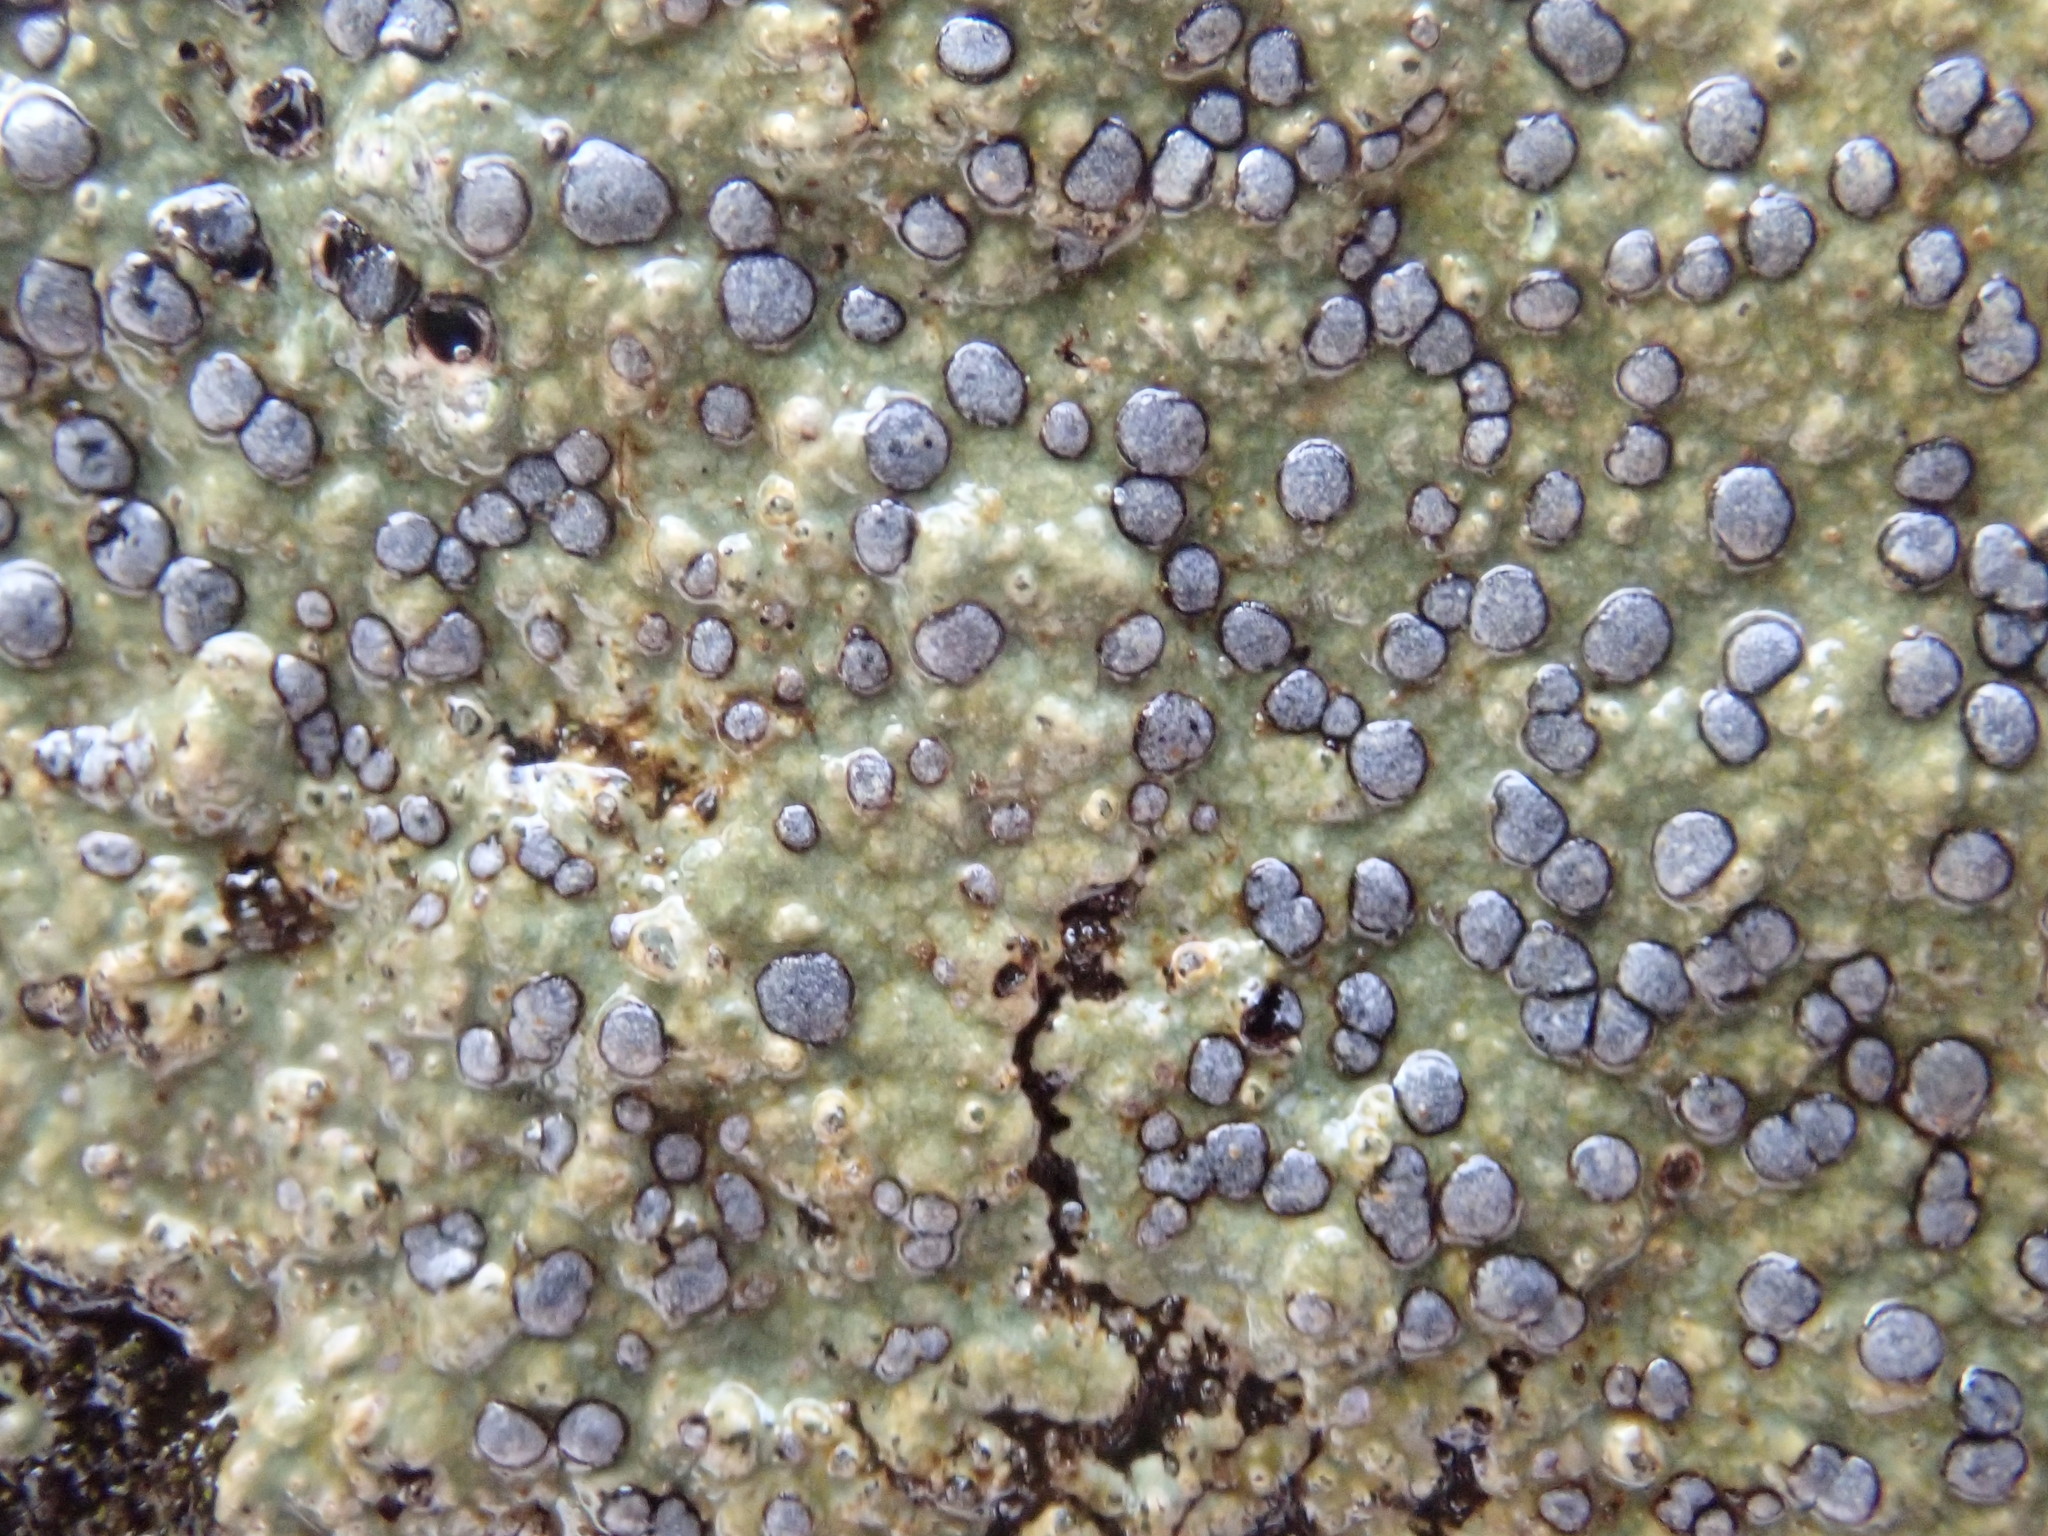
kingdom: Fungi
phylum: Ascomycota
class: Lecanoromycetes
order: Lecideales
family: Lecideaceae
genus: Porpidia
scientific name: Porpidia albocaerulescens
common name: Smokey-eyed boulder lichen
